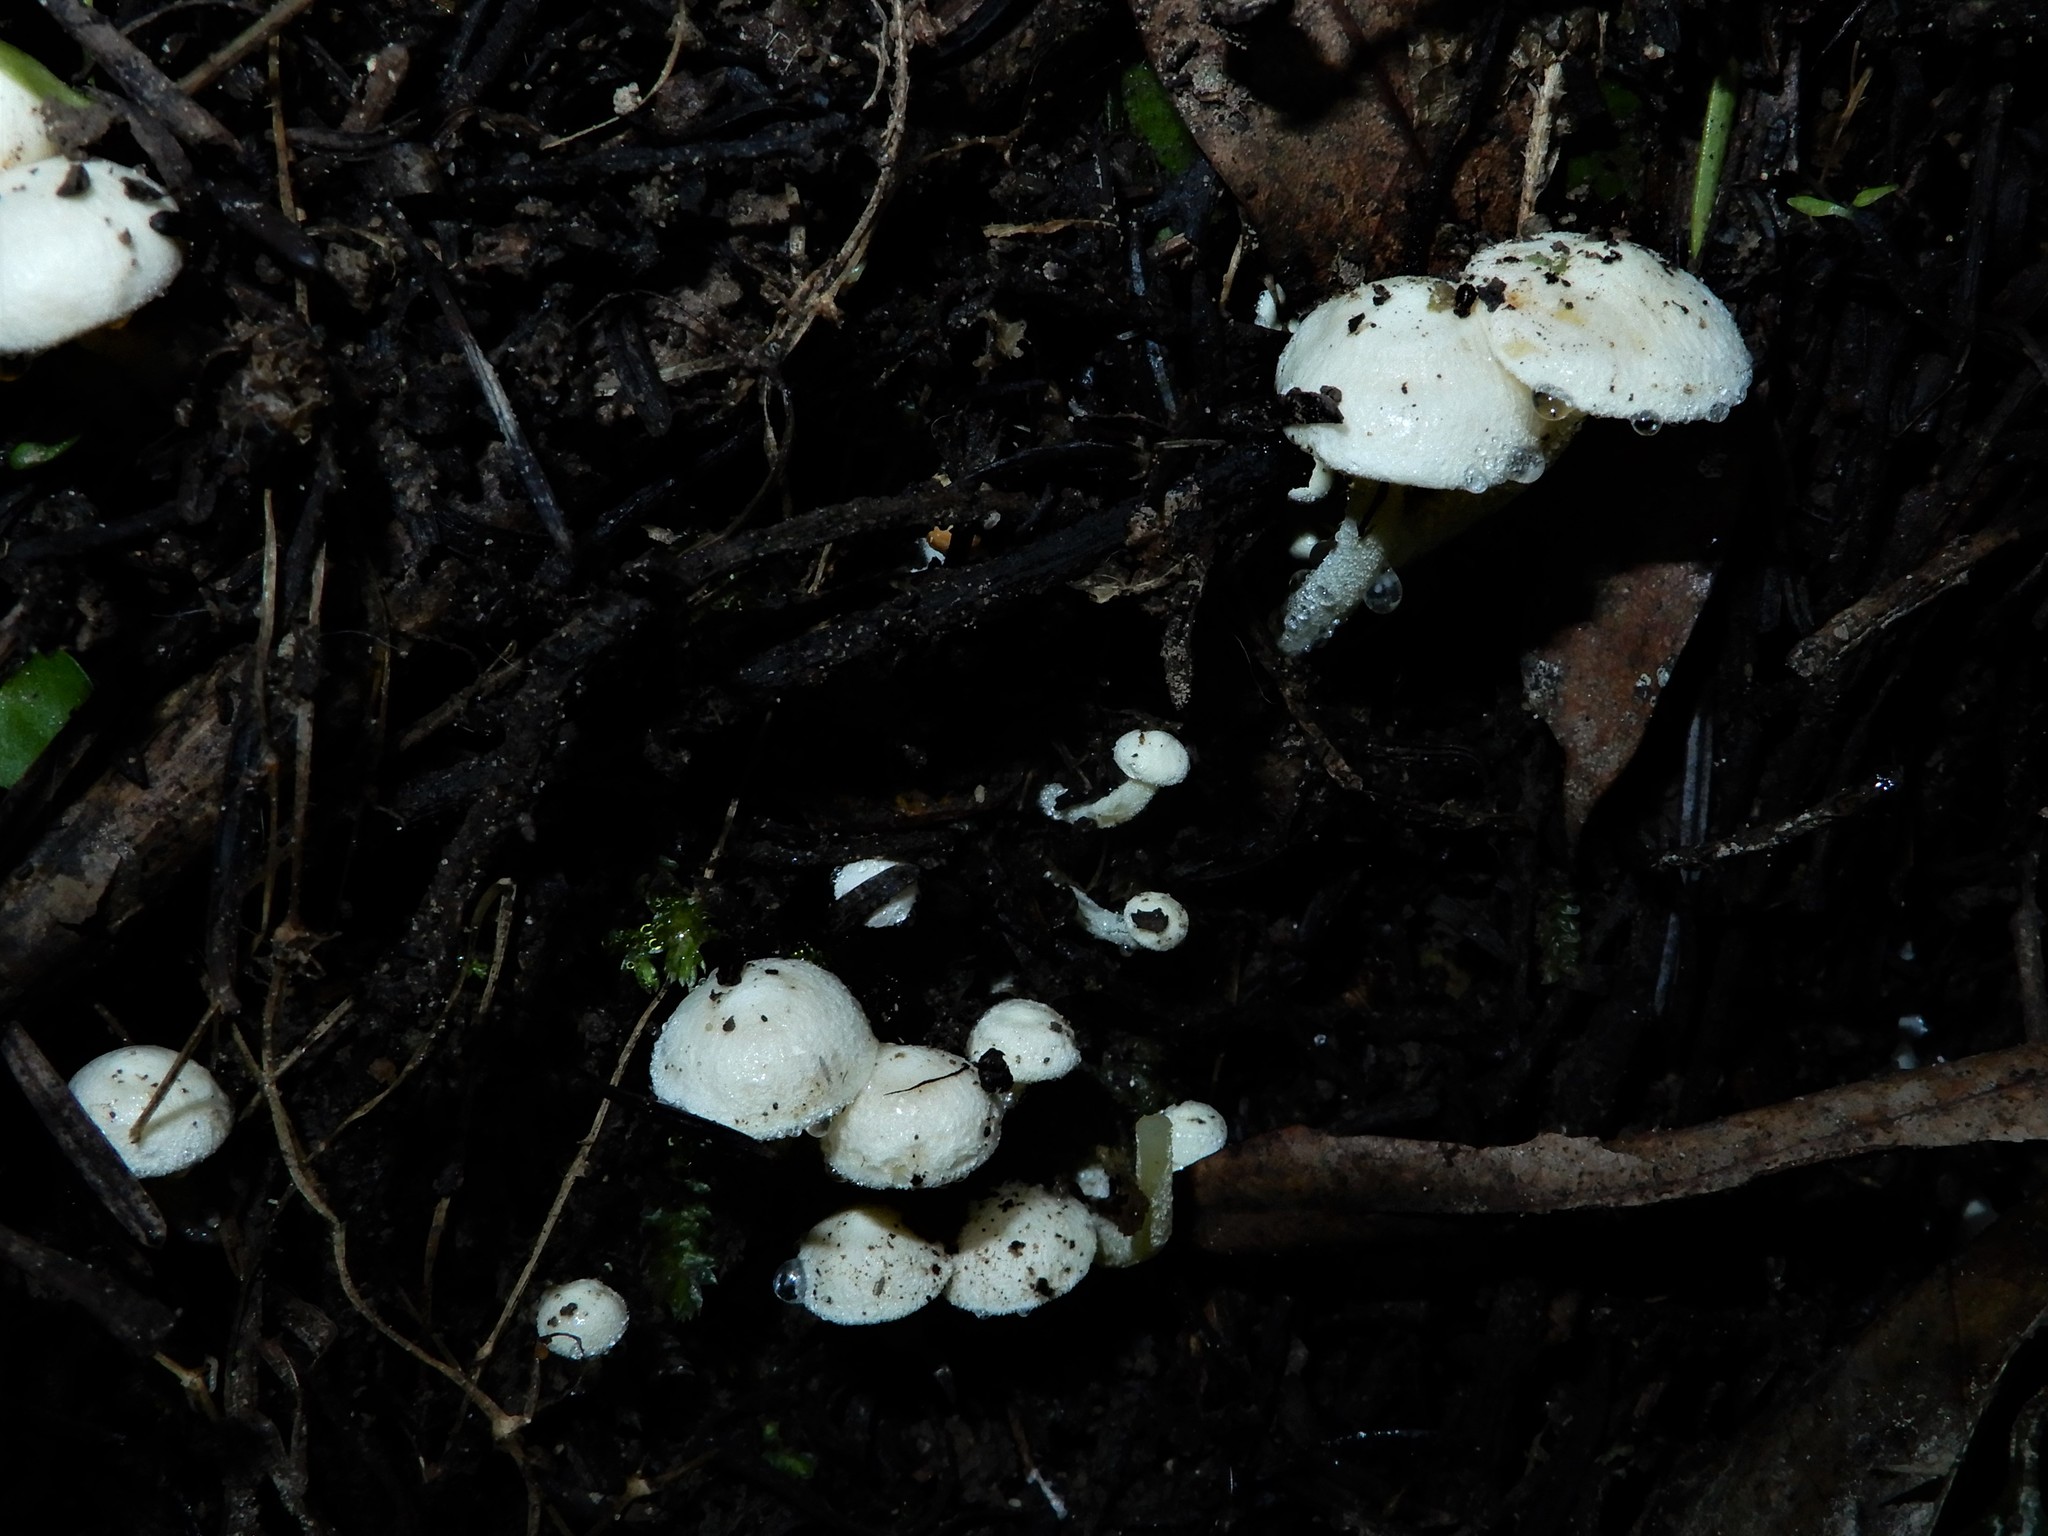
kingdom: Fungi
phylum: Basidiomycota
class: Agaricomycetes
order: Agaricales
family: Hygrophoraceae
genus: Hygrophorus
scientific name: Hygrophorus involutus
